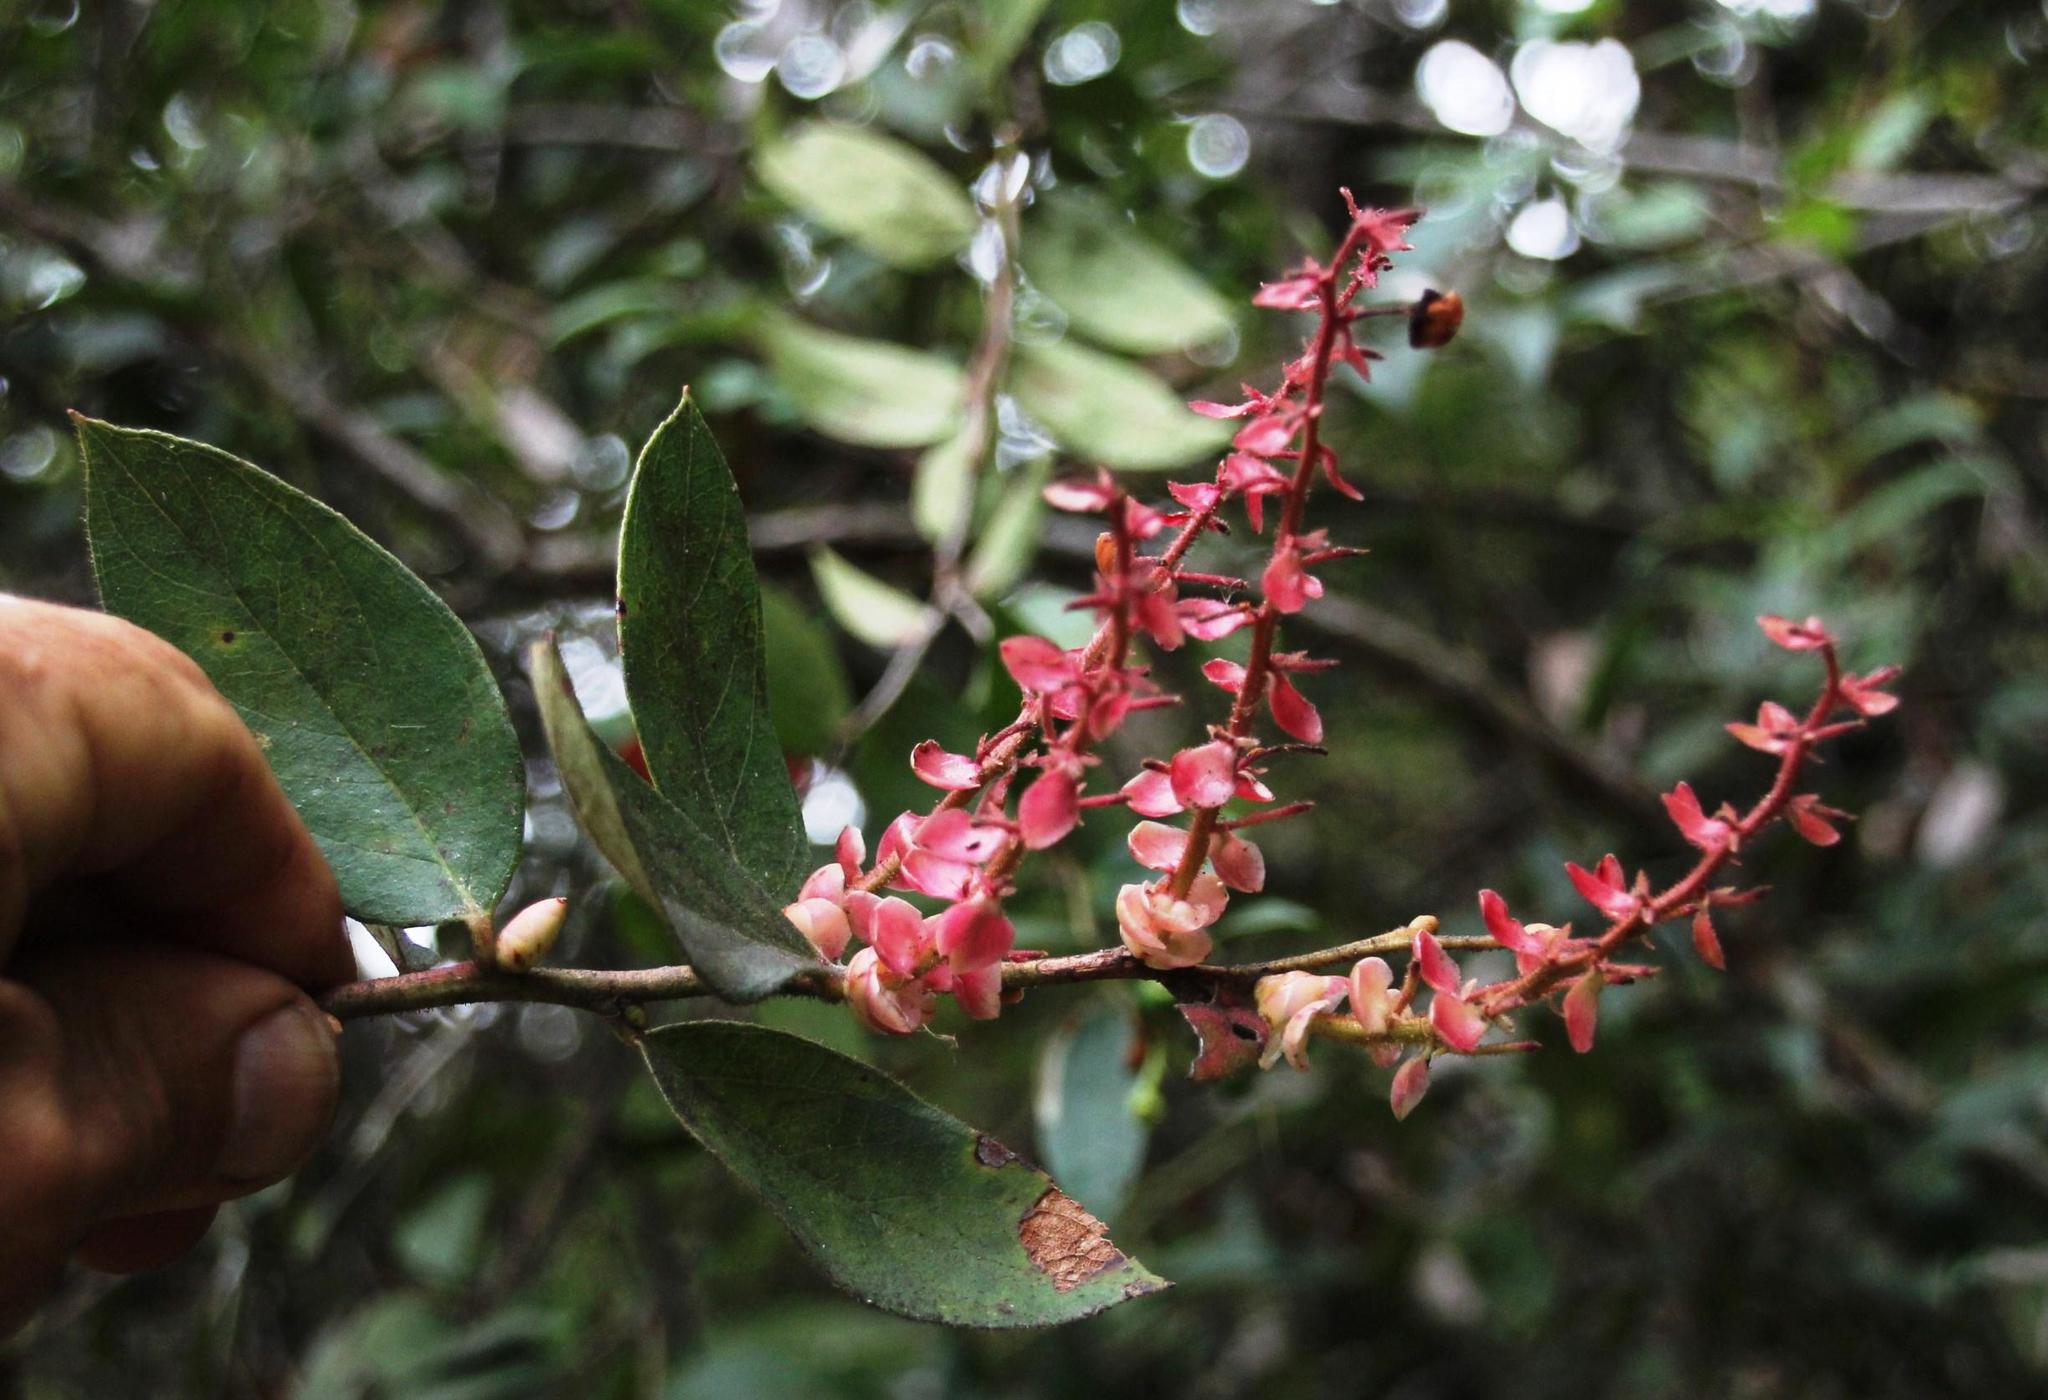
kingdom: Plantae
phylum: Tracheophyta
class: Magnoliopsida
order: Ericales
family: Ericaceae
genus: Gaultheria
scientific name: Gaultheria erecta
